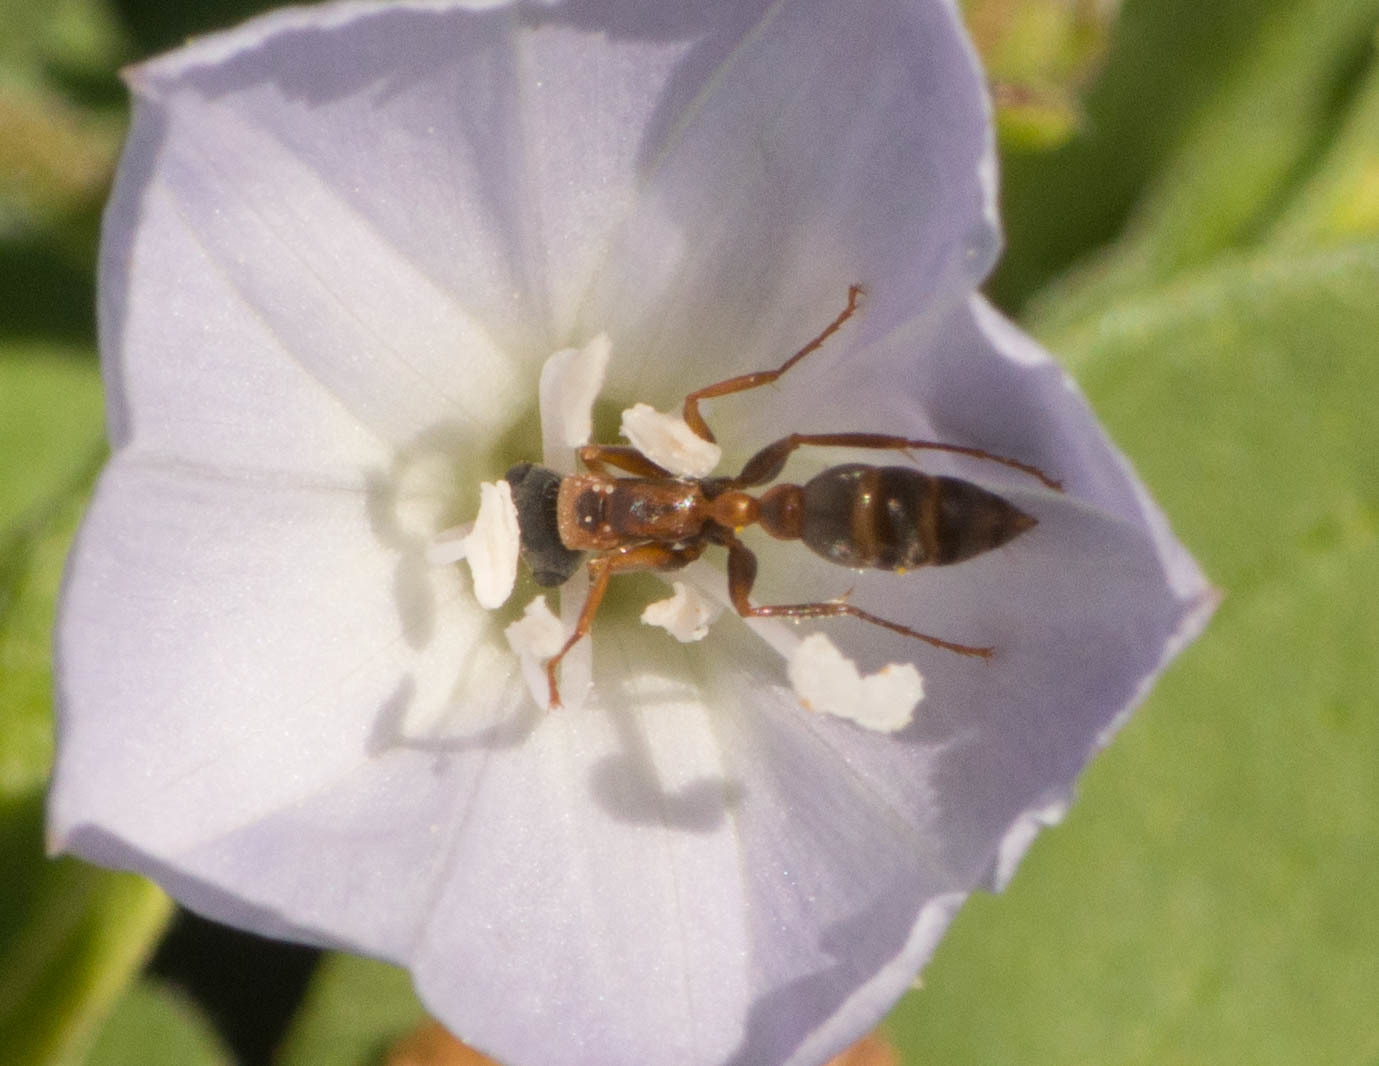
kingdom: Animalia
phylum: Arthropoda
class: Insecta
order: Hymenoptera
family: Formicidae
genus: Pseudomyrmex
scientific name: Pseudomyrmex gracilis
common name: Graceful twig ant
